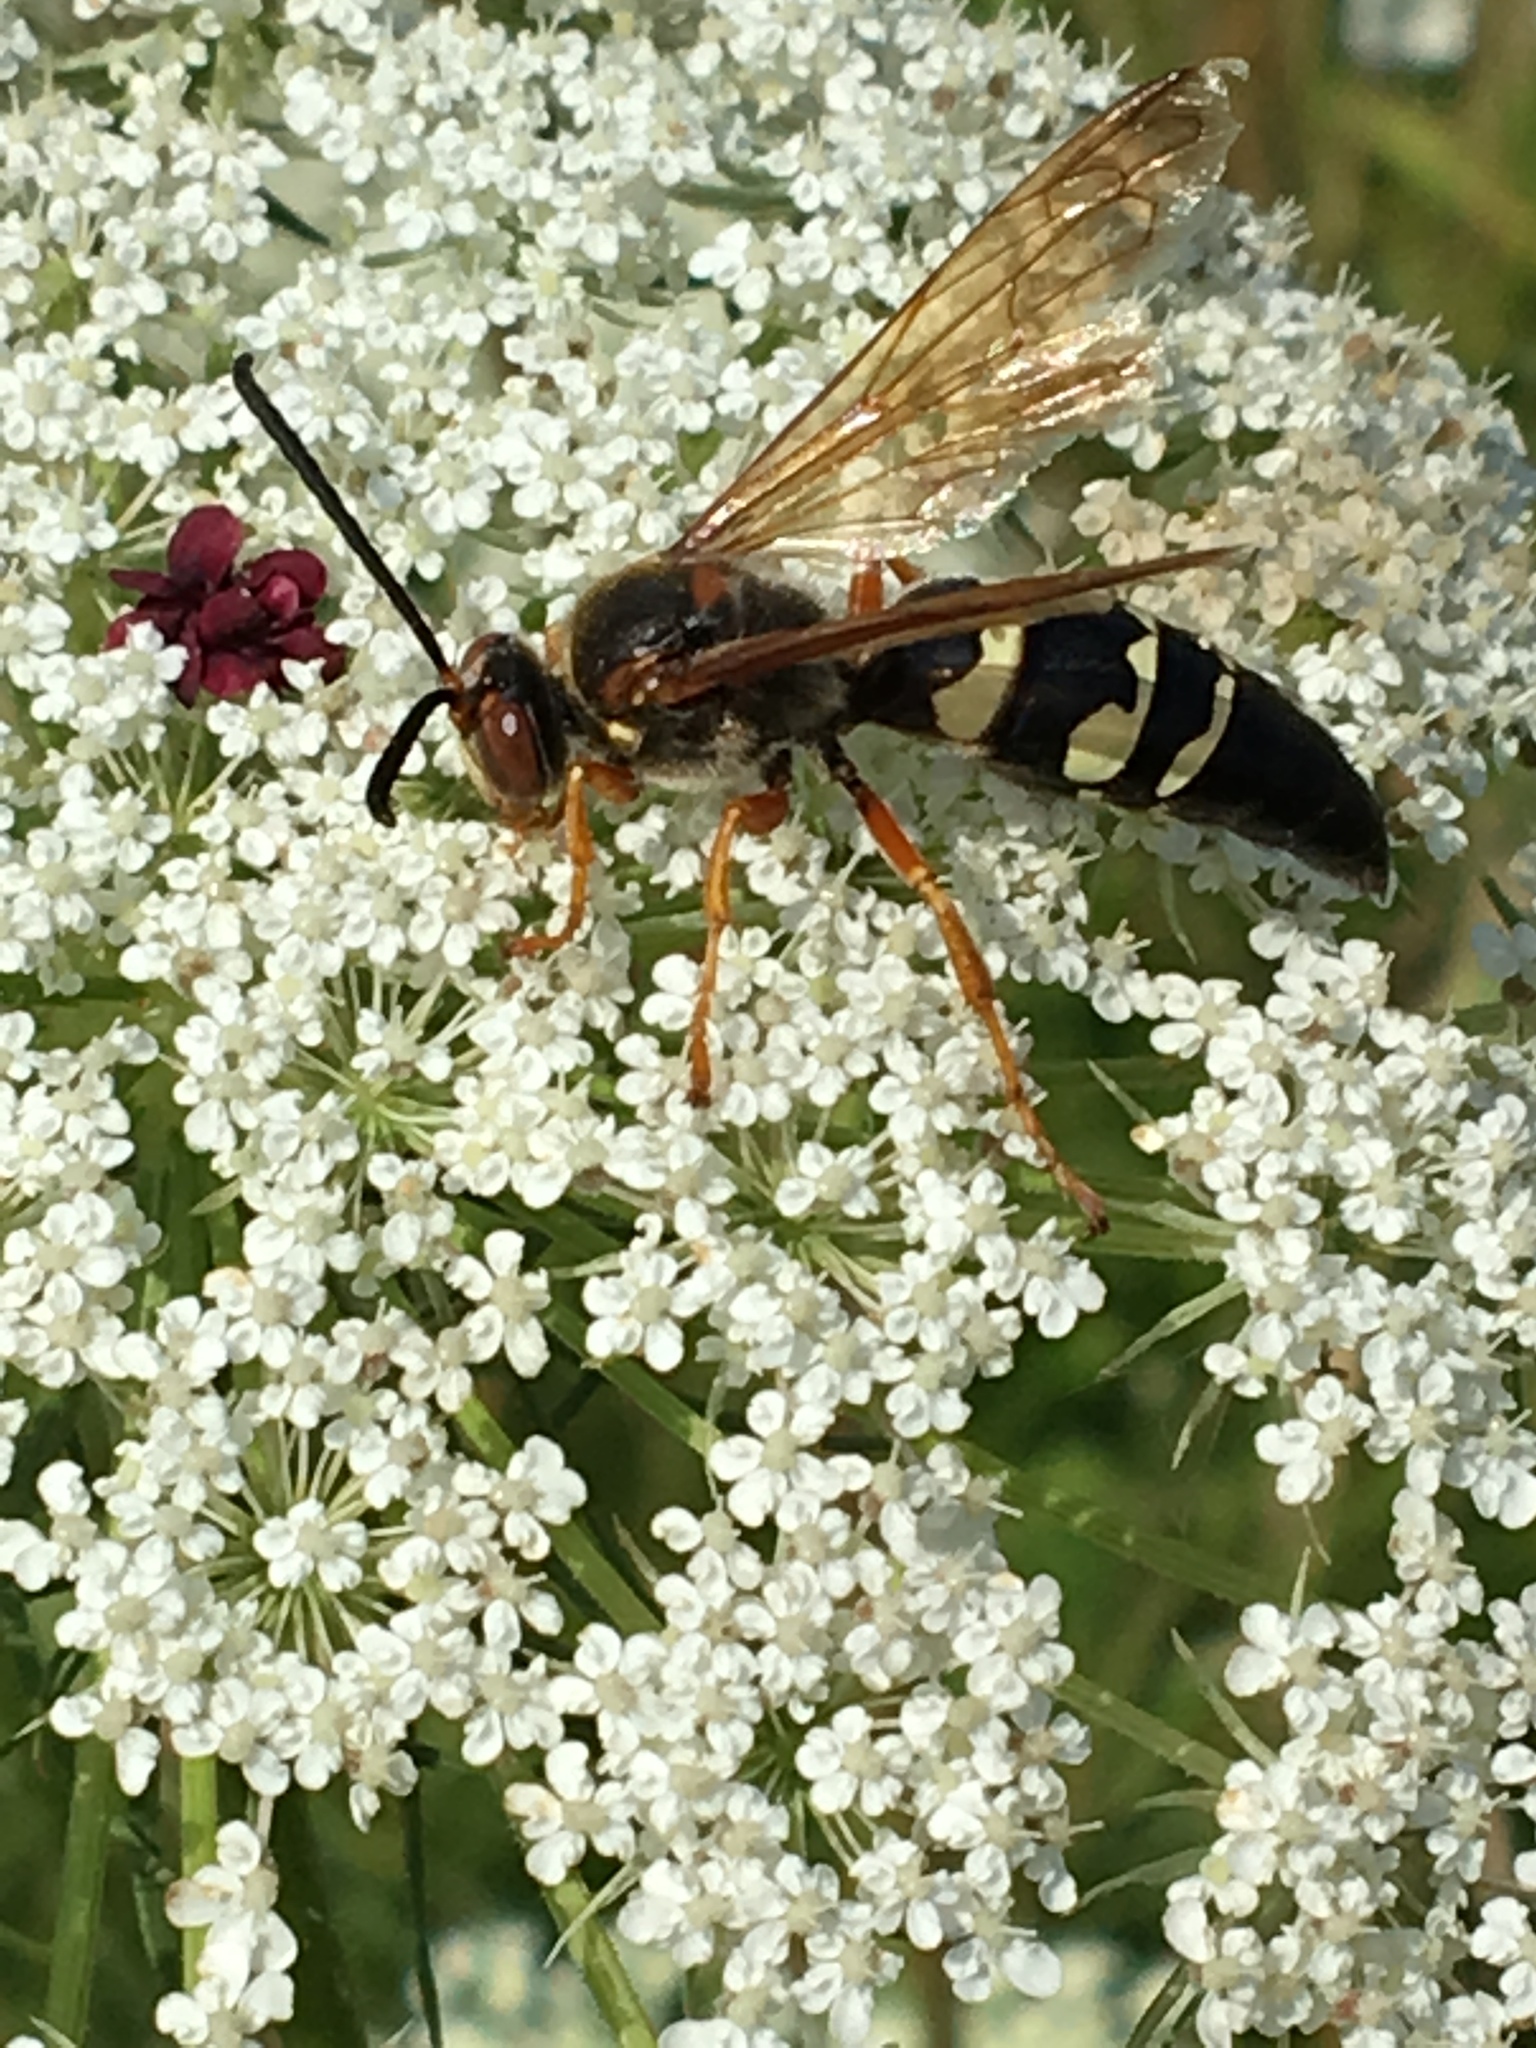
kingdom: Animalia
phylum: Arthropoda
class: Insecta
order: Hymenoptera
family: Crabronidae
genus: Sphecius
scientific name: Sphecius speciosus
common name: Cicada killer
